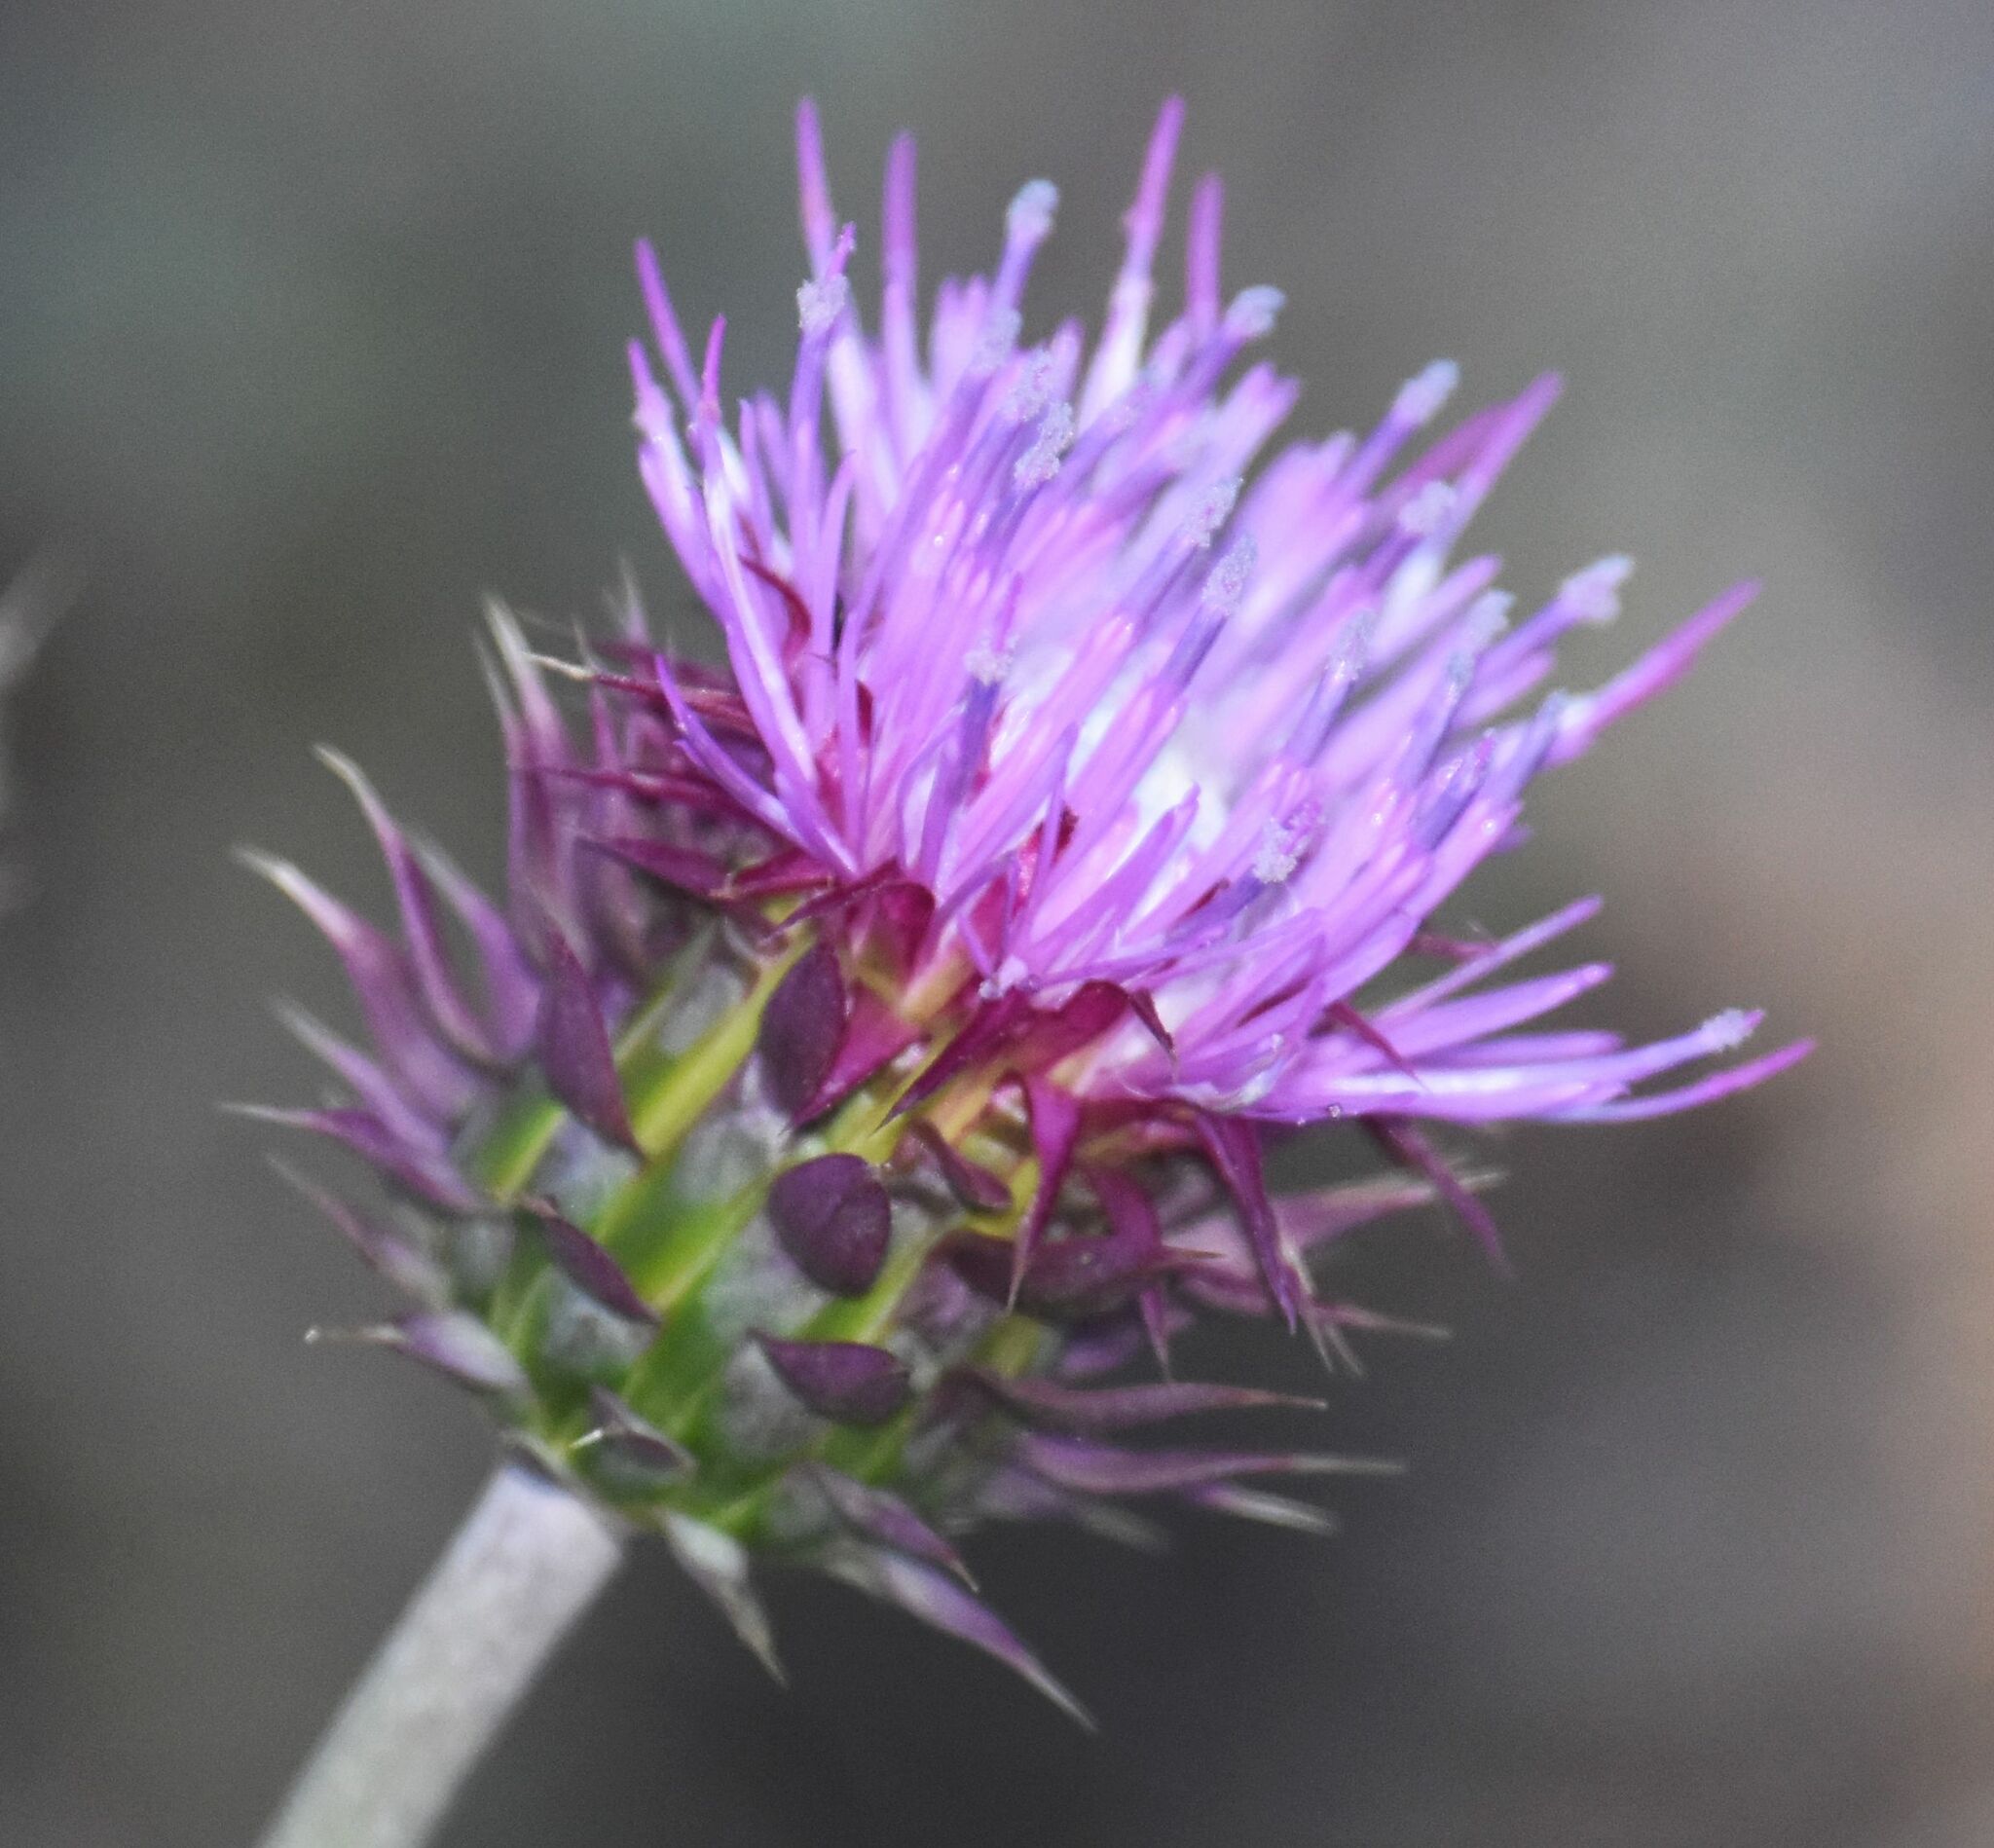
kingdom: Plantae
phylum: Tracheophyta
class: Magnoliopsida
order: Asterales
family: Asteraceae
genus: Carduus
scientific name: Carduus nutans
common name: Musk thistle
